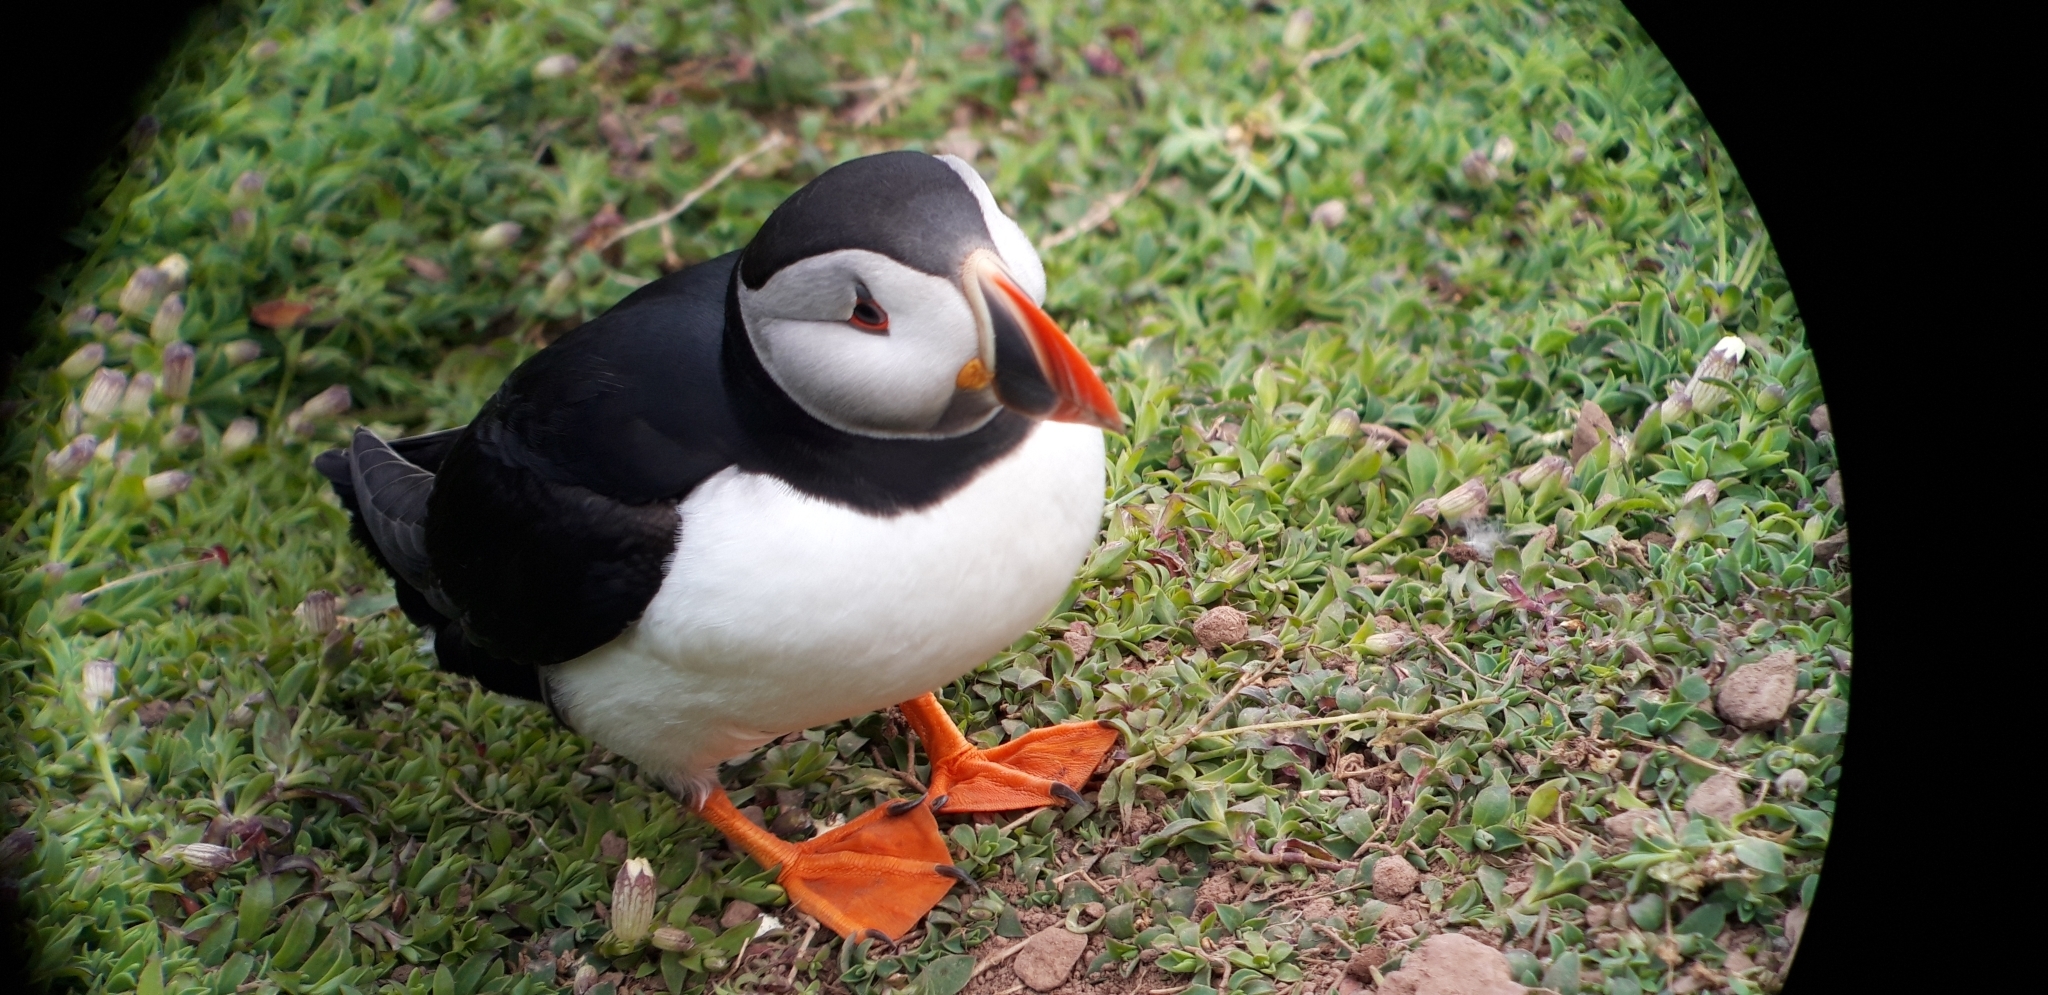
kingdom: Animalia
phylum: Chordata
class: Aves
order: Charadriiformes
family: Alcidae
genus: Fratercula
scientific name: Fratercula arctica
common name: Atlantic puffin
